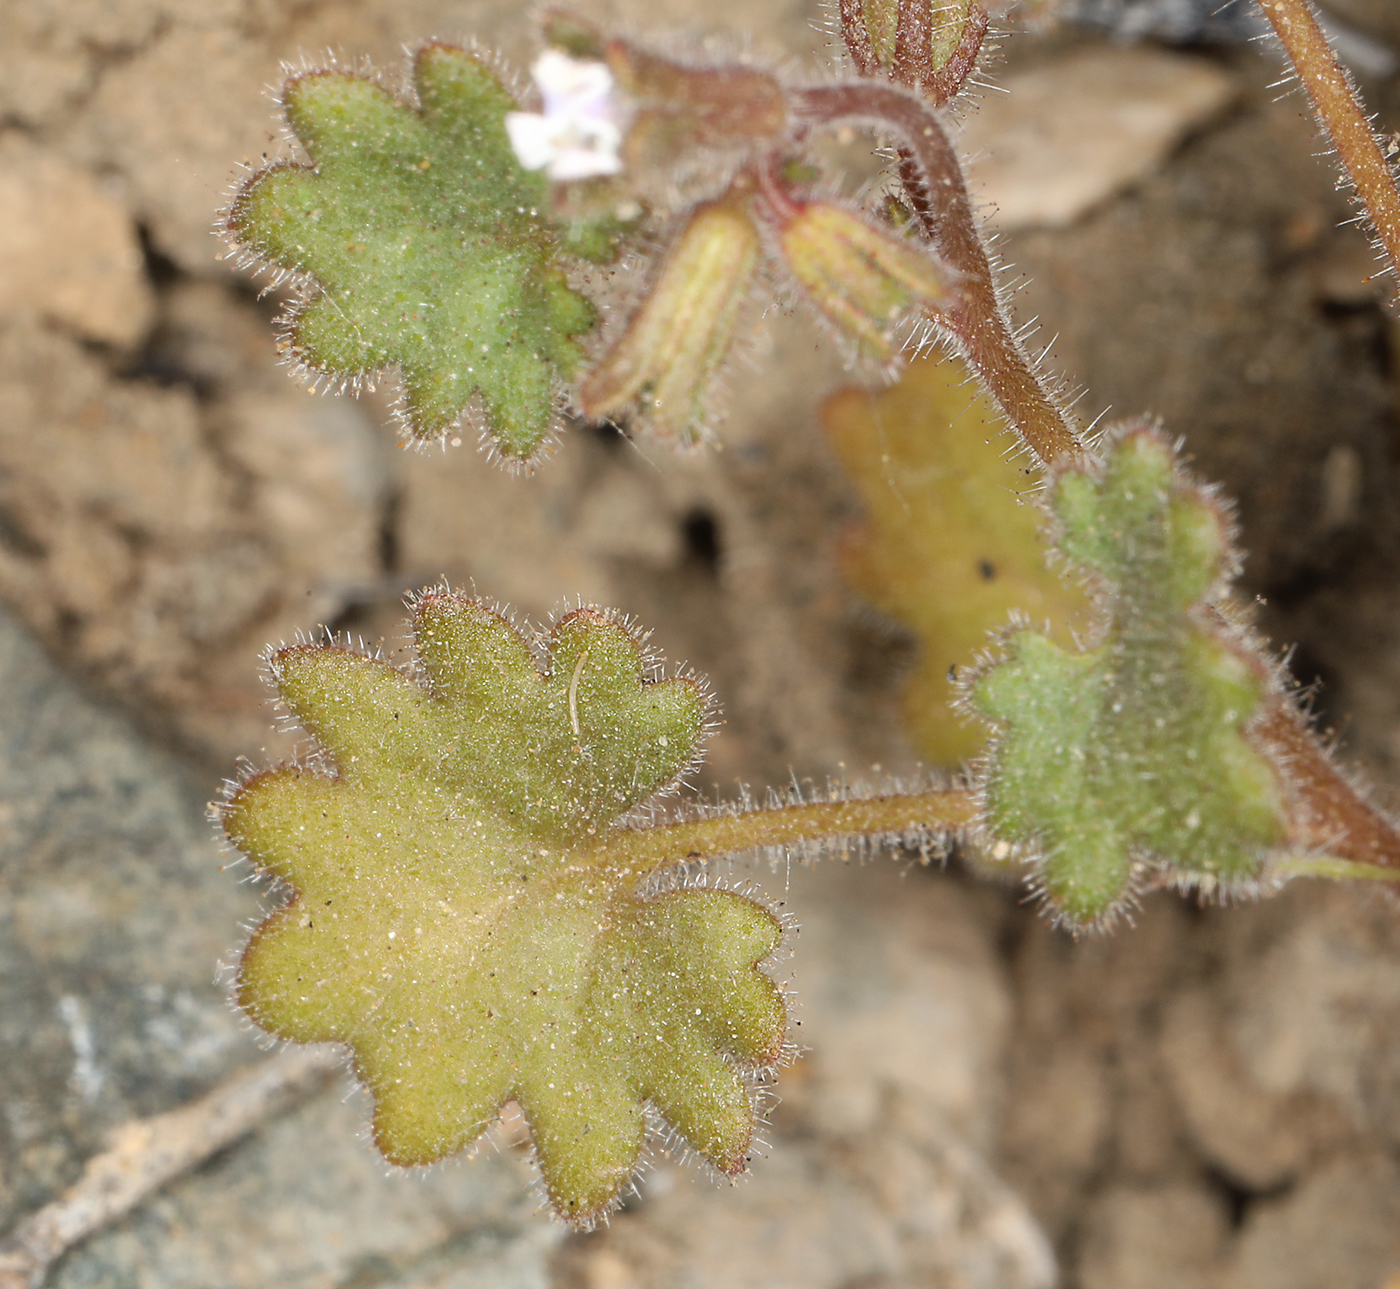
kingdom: Plantae
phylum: Tracheophyta
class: Magnoliopsida
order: Boraginales
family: Hydrophyllaceae
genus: Phacelia
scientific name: Phacelia rotundifolia
